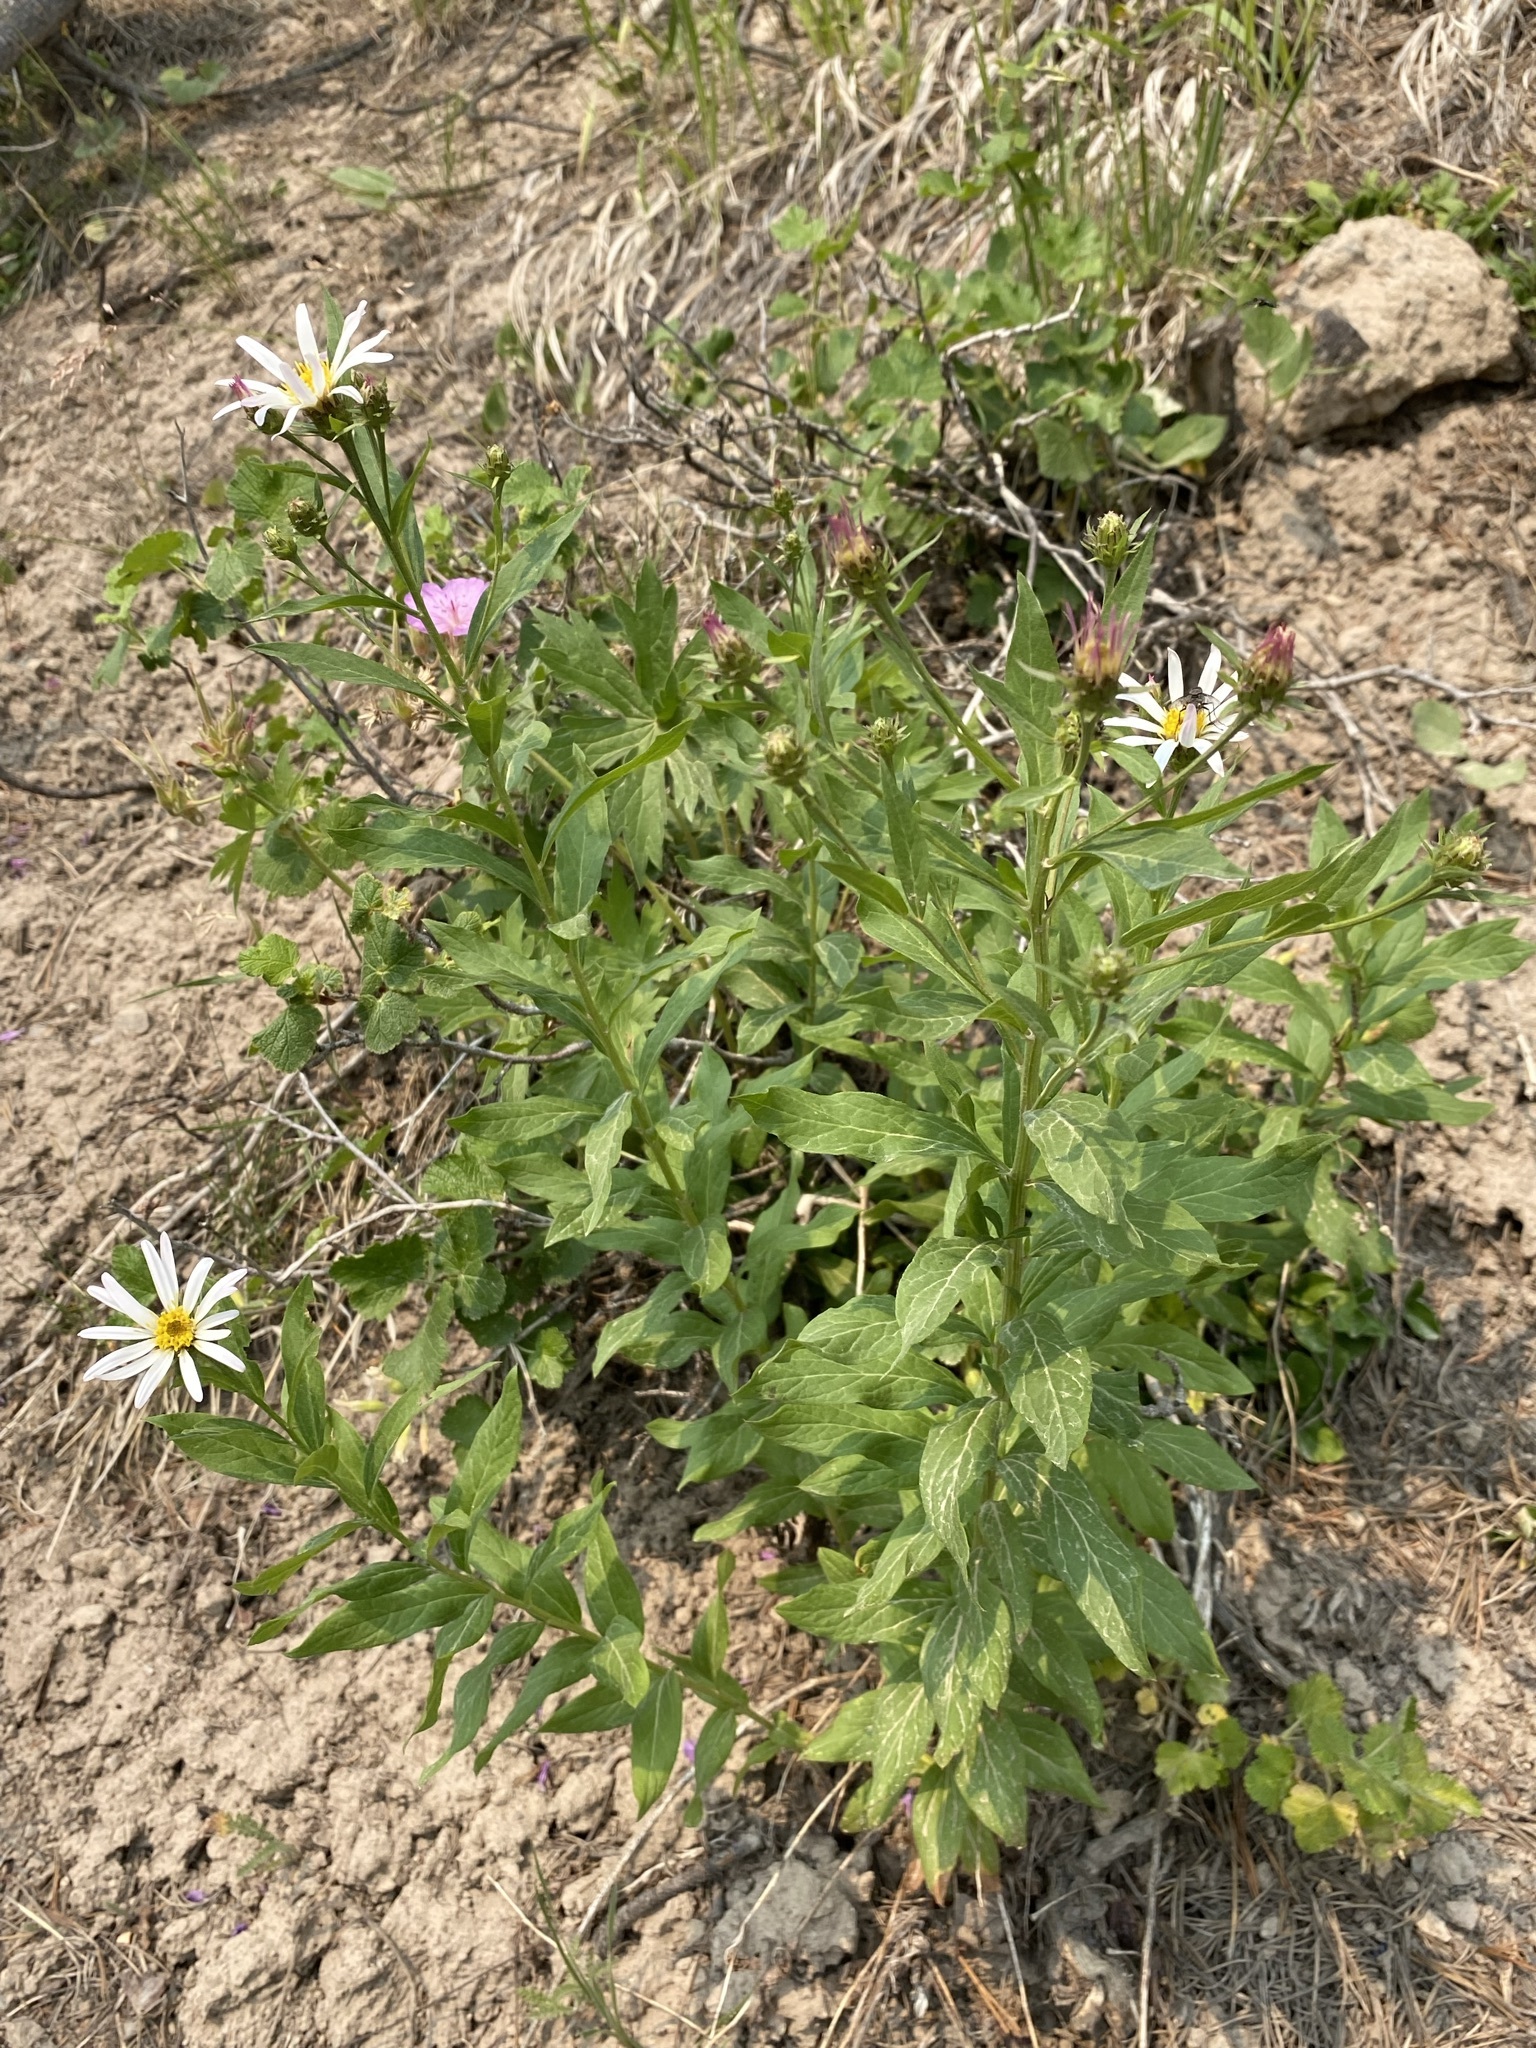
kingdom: Plantae
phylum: Tracheophyta
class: Magnoliopsida
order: Asterales
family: Asteraceae
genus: Eucephalus
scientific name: Eucephalus engelmannii
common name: Engelmann's aster
